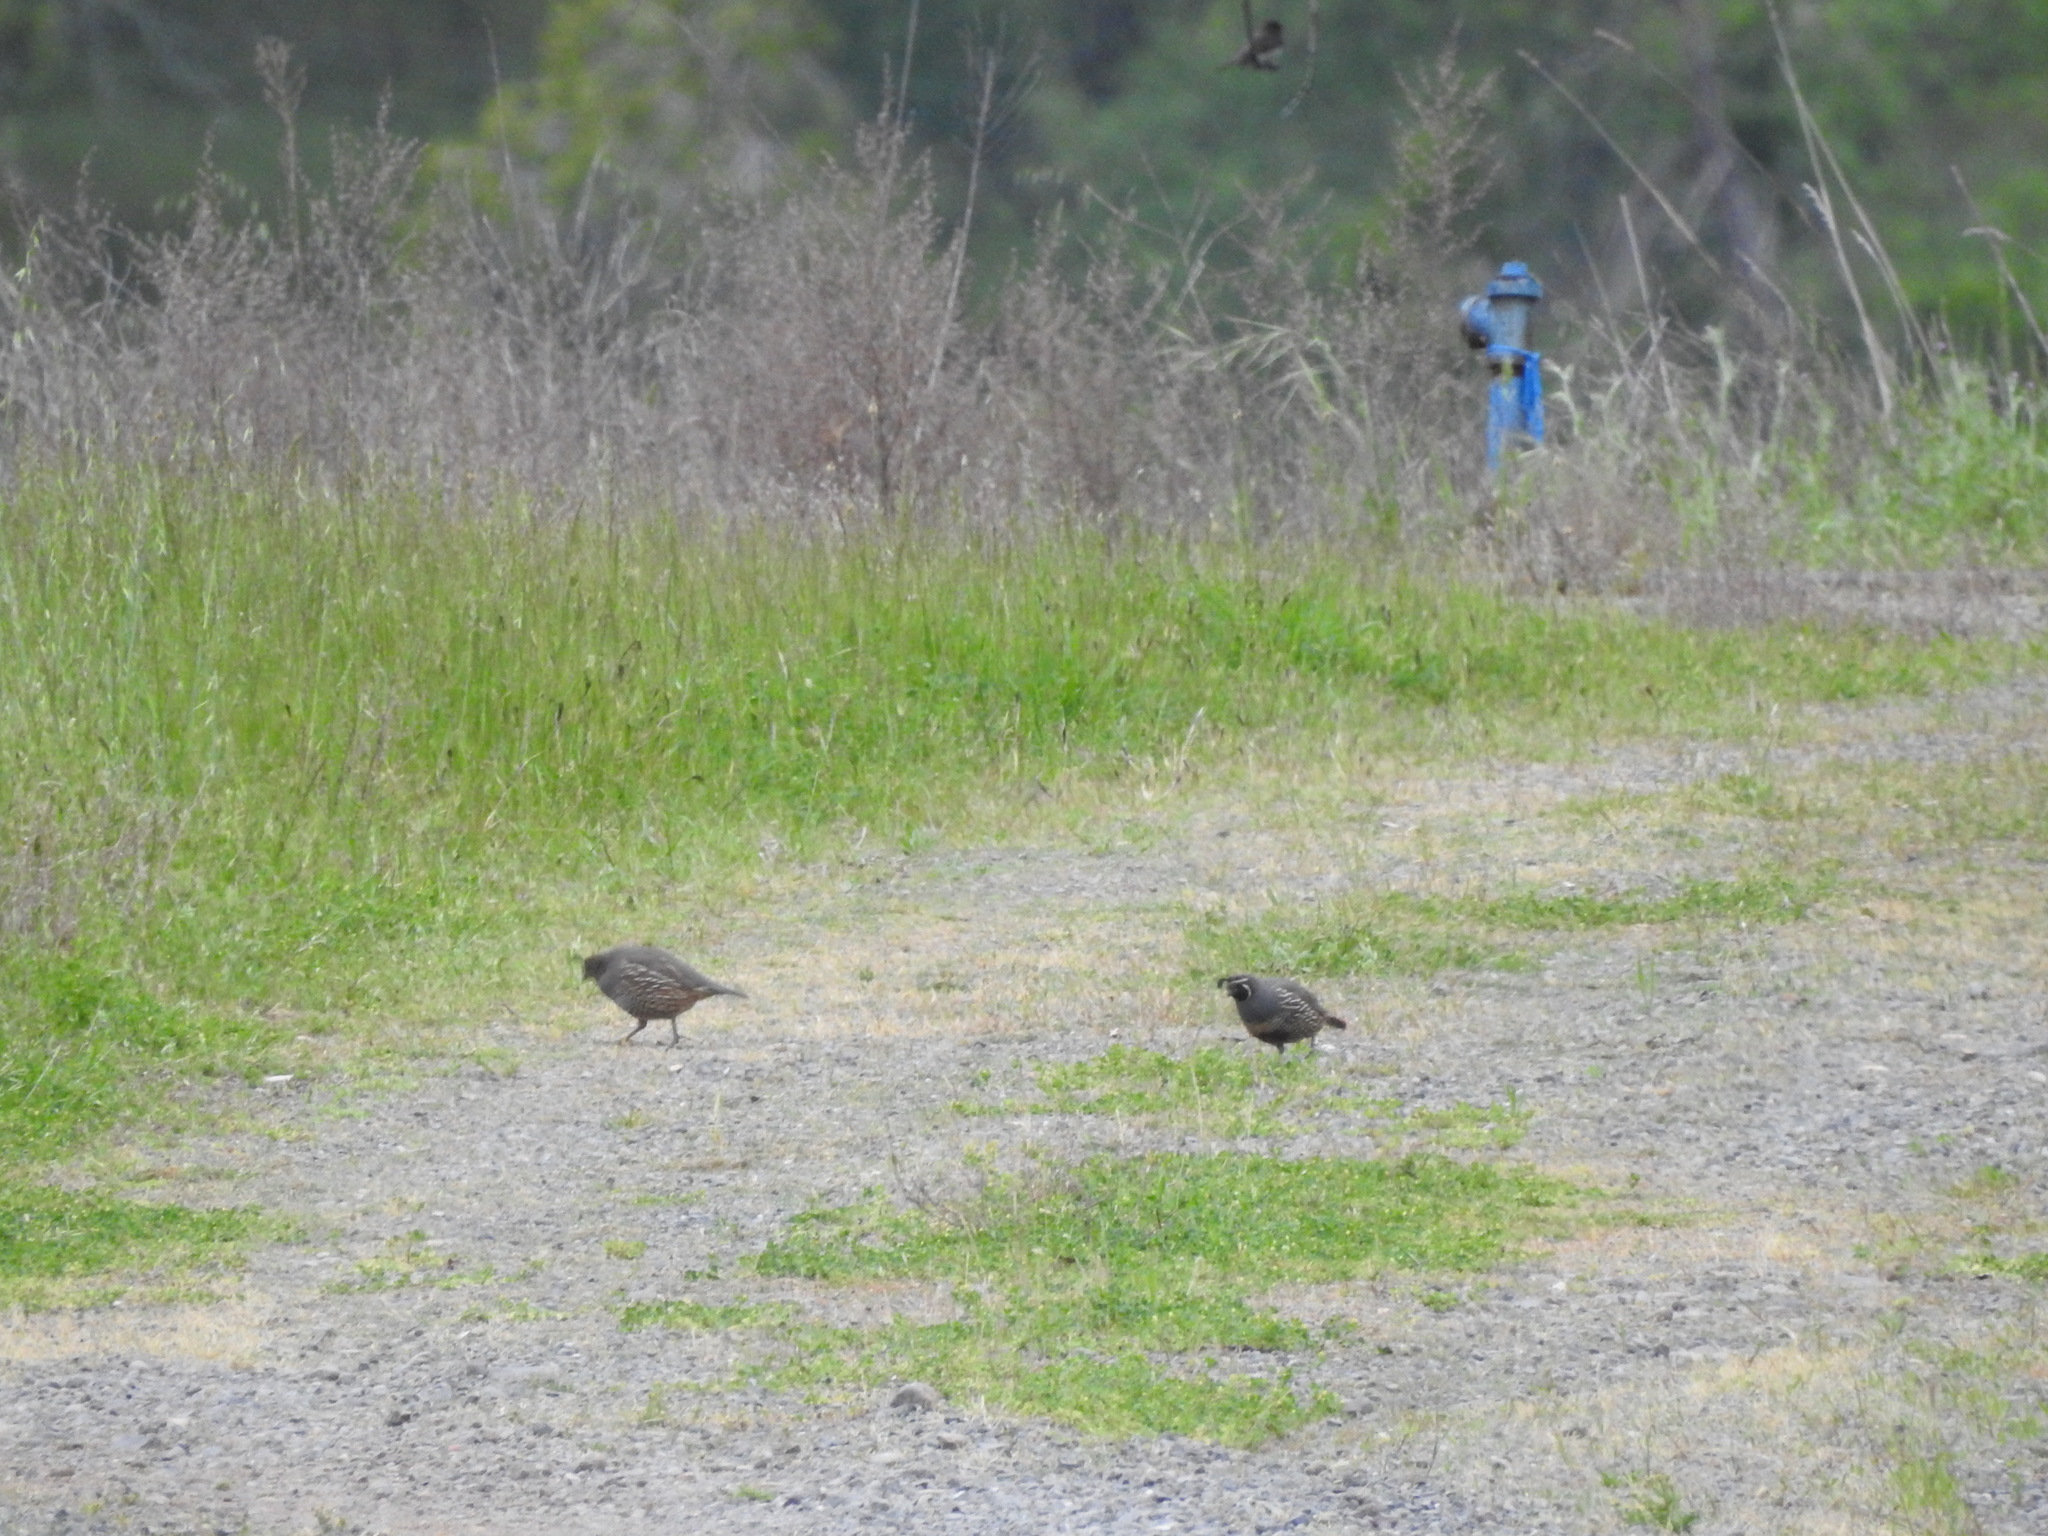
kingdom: Animalia
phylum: Chordata
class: Aves
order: Galliformes
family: Odontophoridae
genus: Callipepla
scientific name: Callipepla californica
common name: California quail
